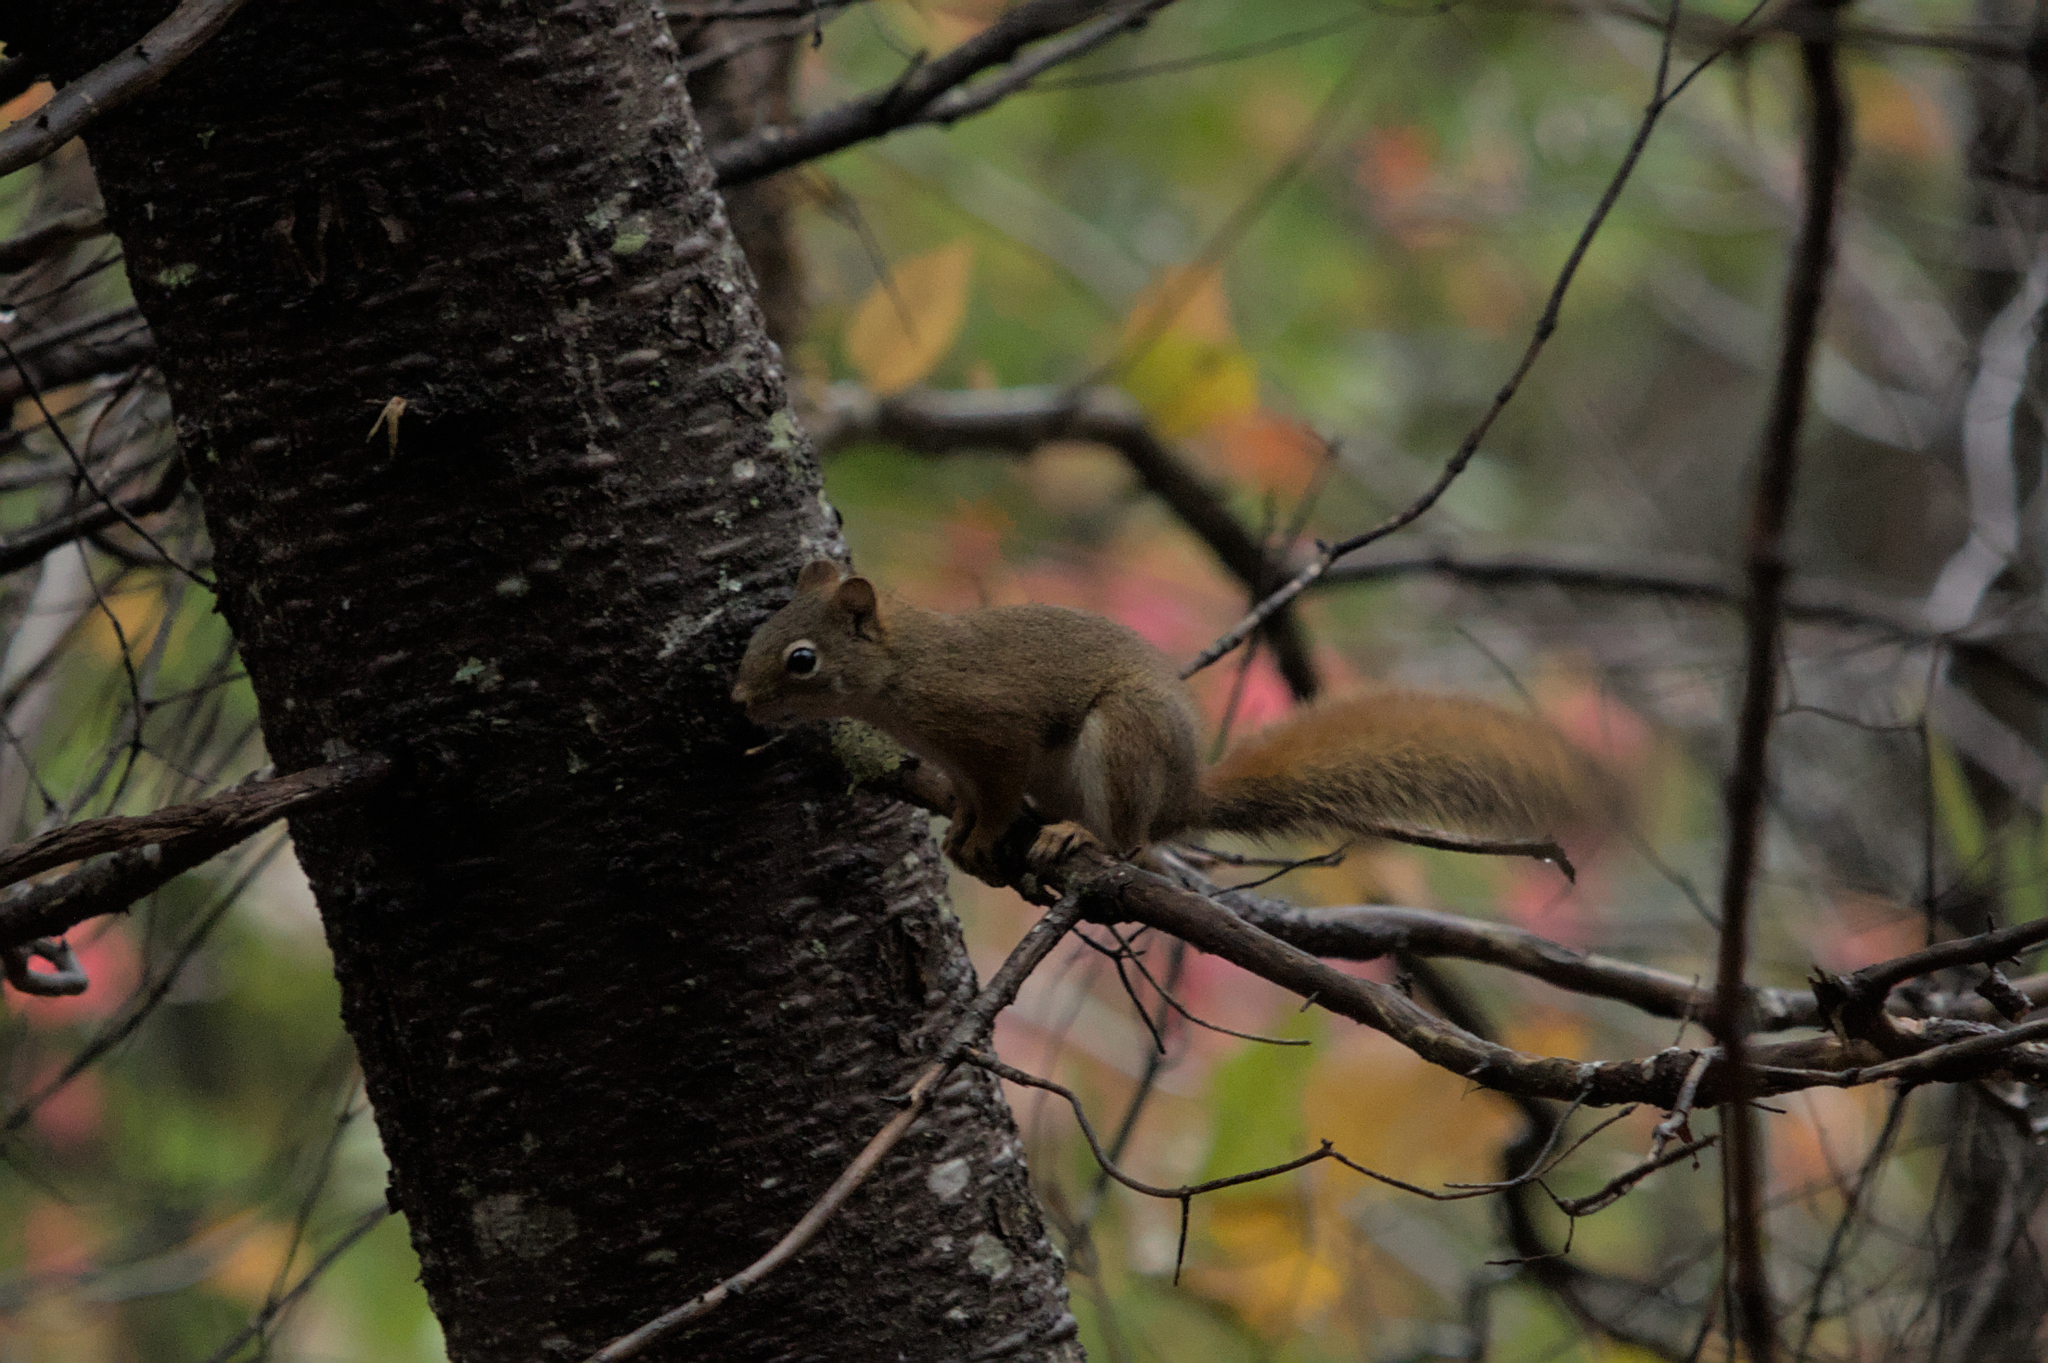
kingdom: Animalia
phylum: Chordata
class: Mammalia
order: Rodentia
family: Sciuridae
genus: Tamiasciurus
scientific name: Tamiasciurus hudsonicus
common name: Red squirrel
